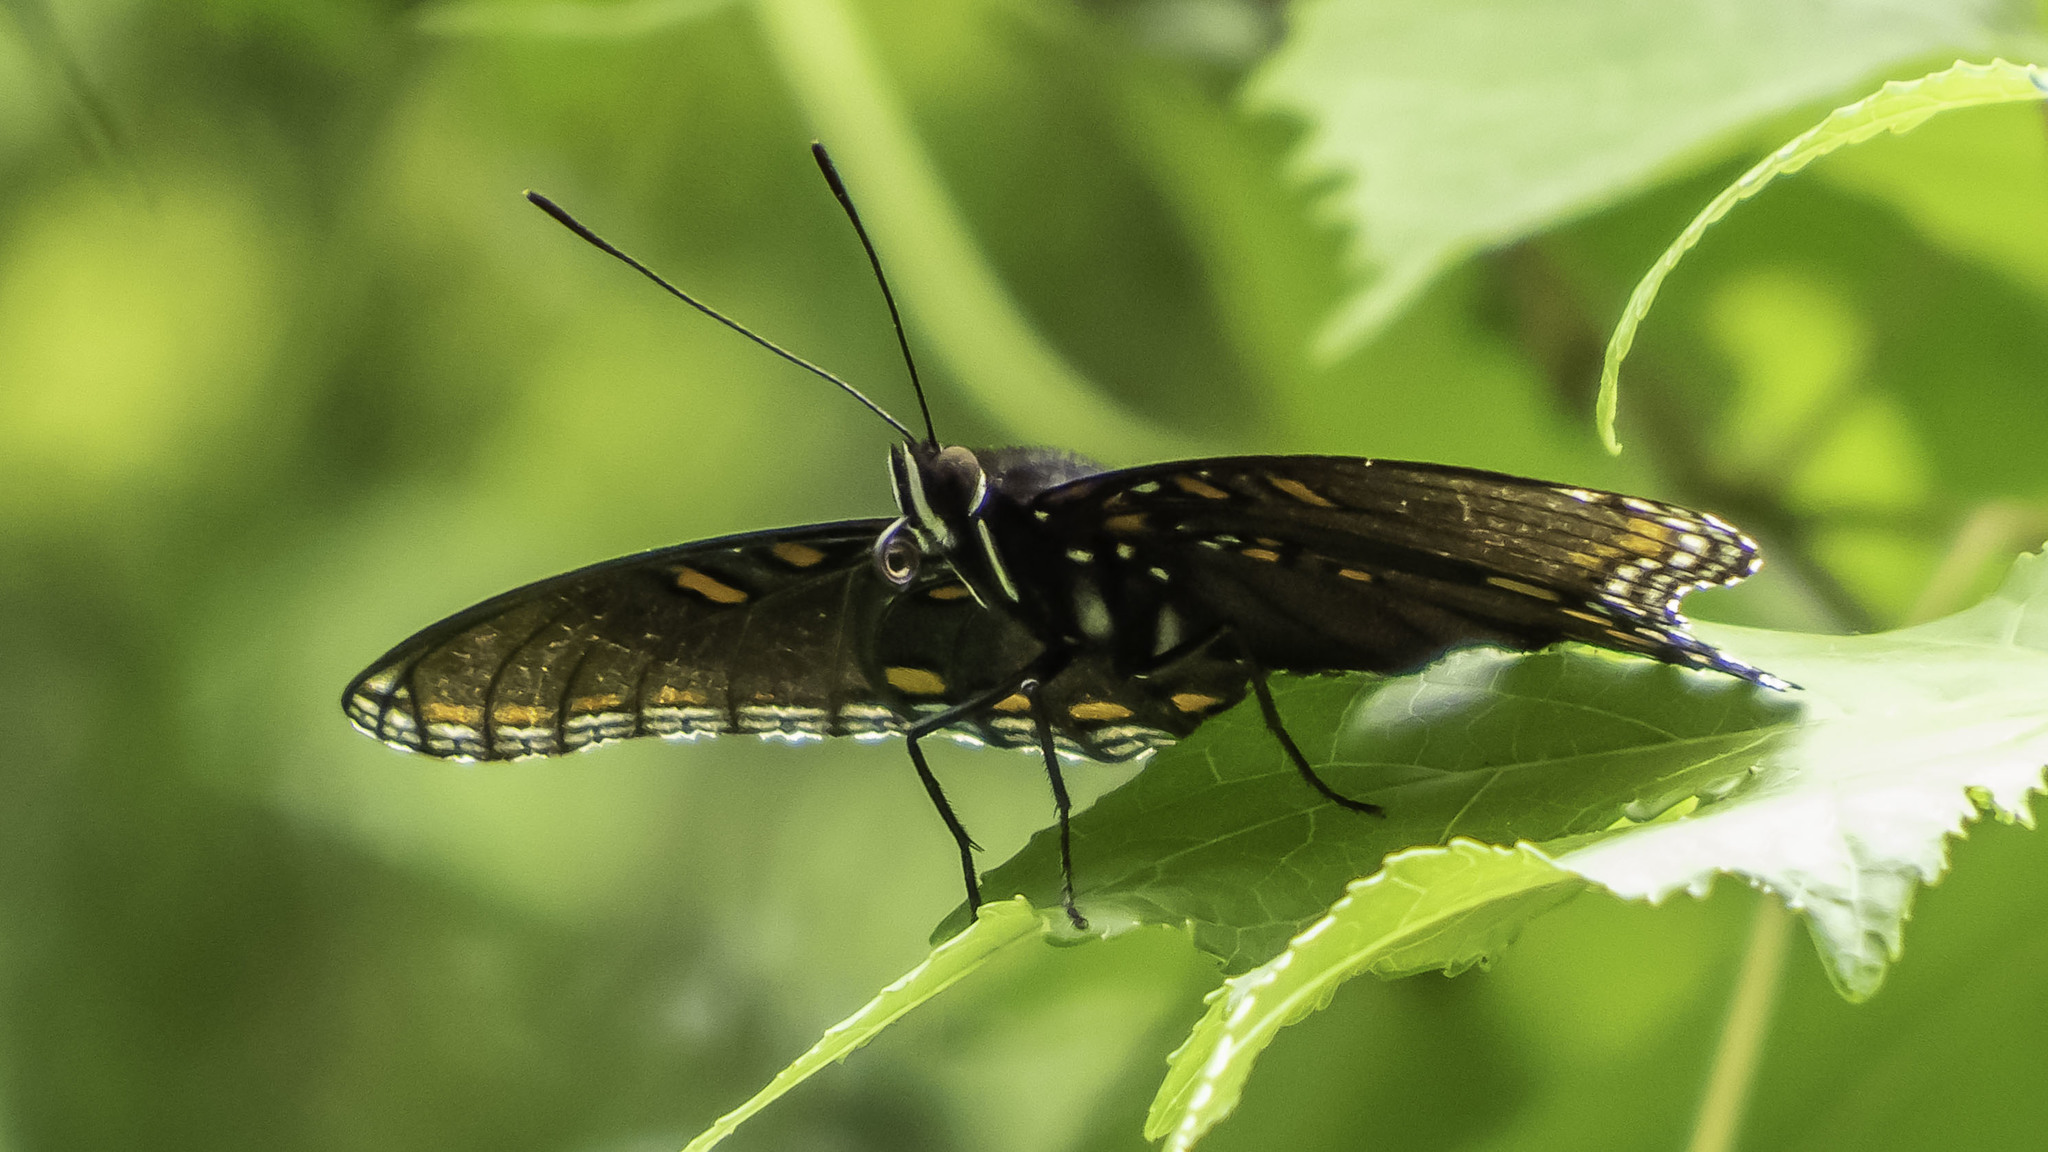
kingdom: Animalia
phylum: Arthropoda
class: Insecta
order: Lepidoptera
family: Nymphalidae
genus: Limenitis
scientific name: Limenitis astyanax
